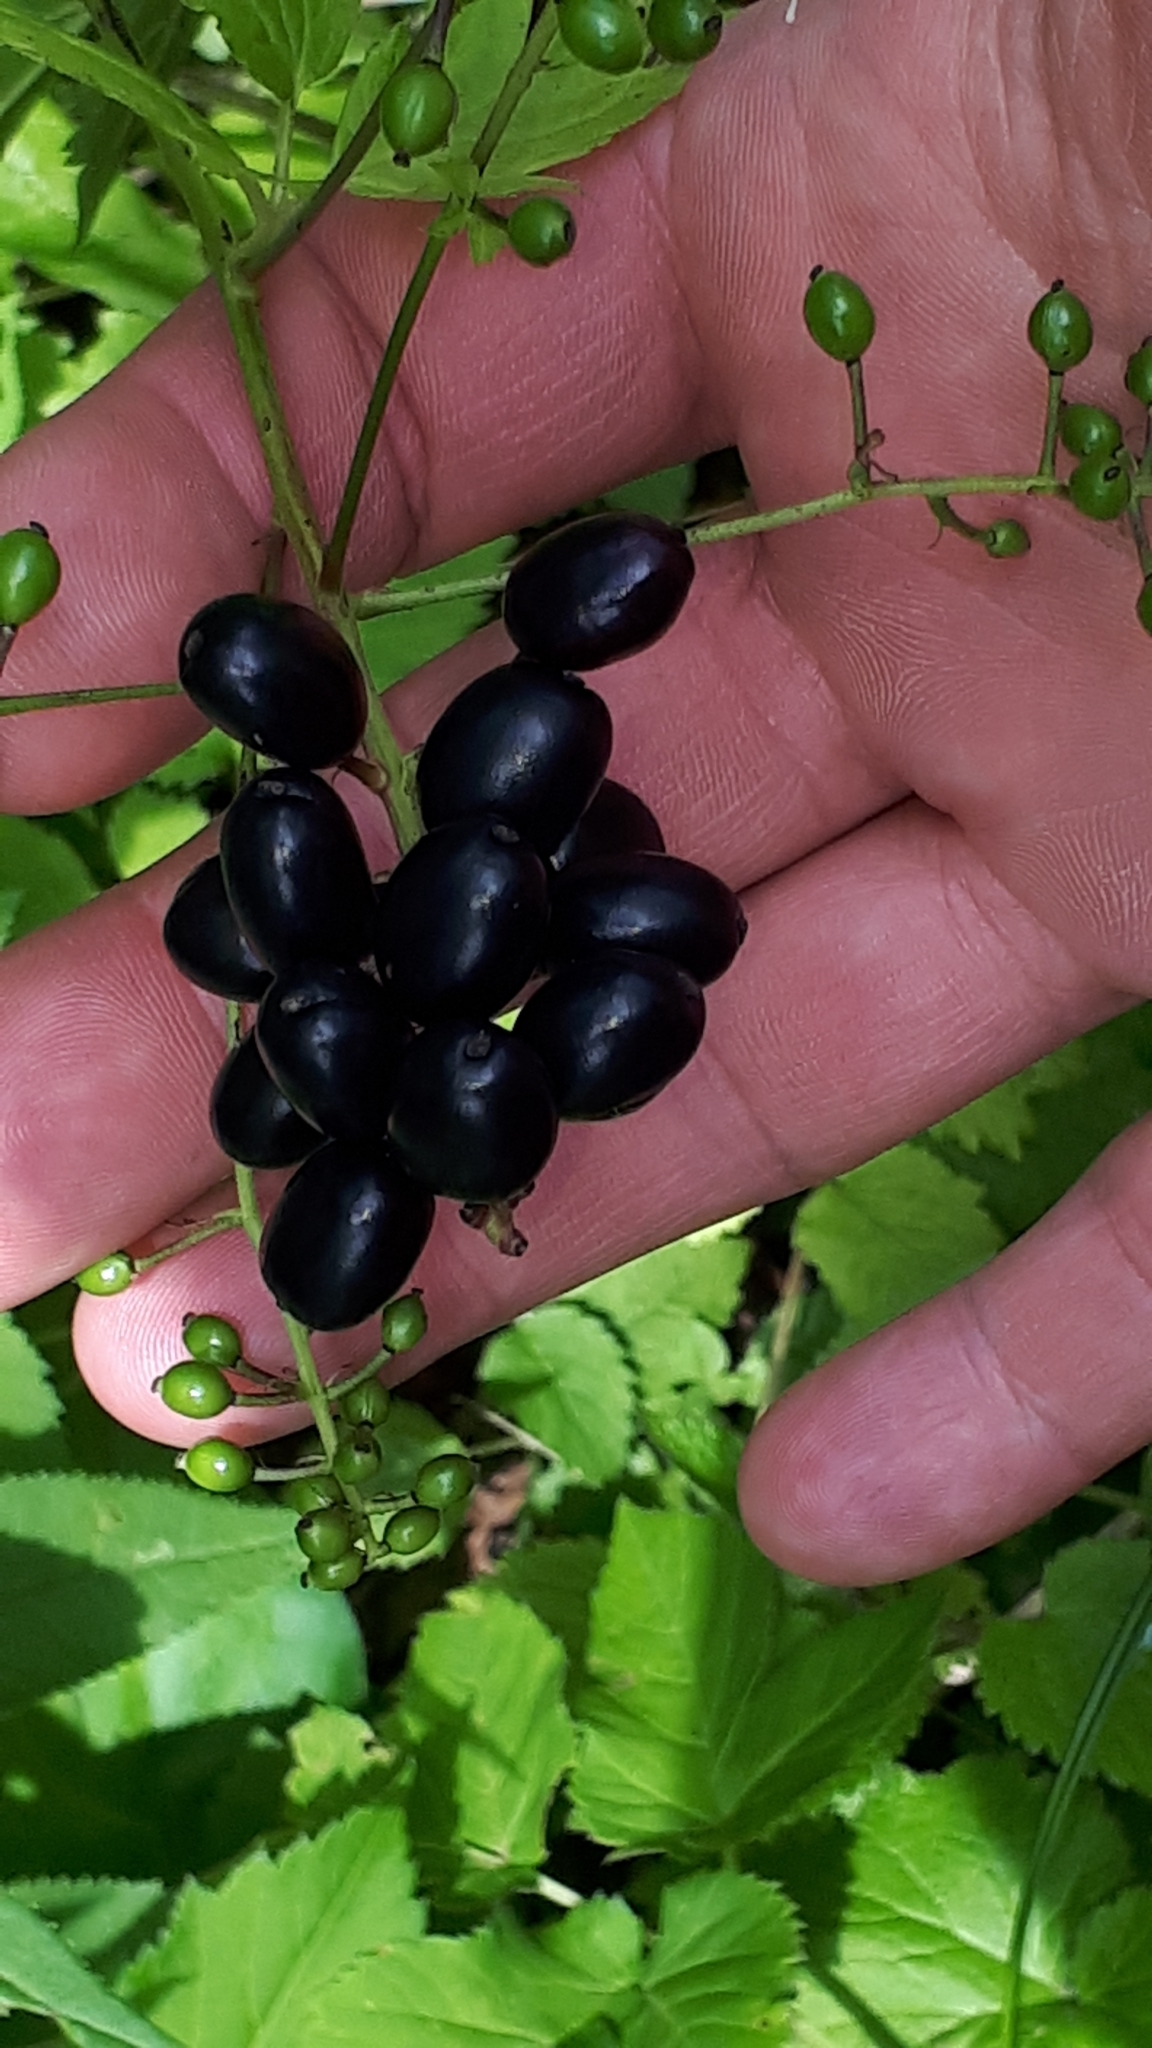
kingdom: Plantae
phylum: Tracheophyta
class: Magnoliopsida
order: Ranunculales
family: Ranunculaceae
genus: Actaea
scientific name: Actaea spicata
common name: Baneberry
